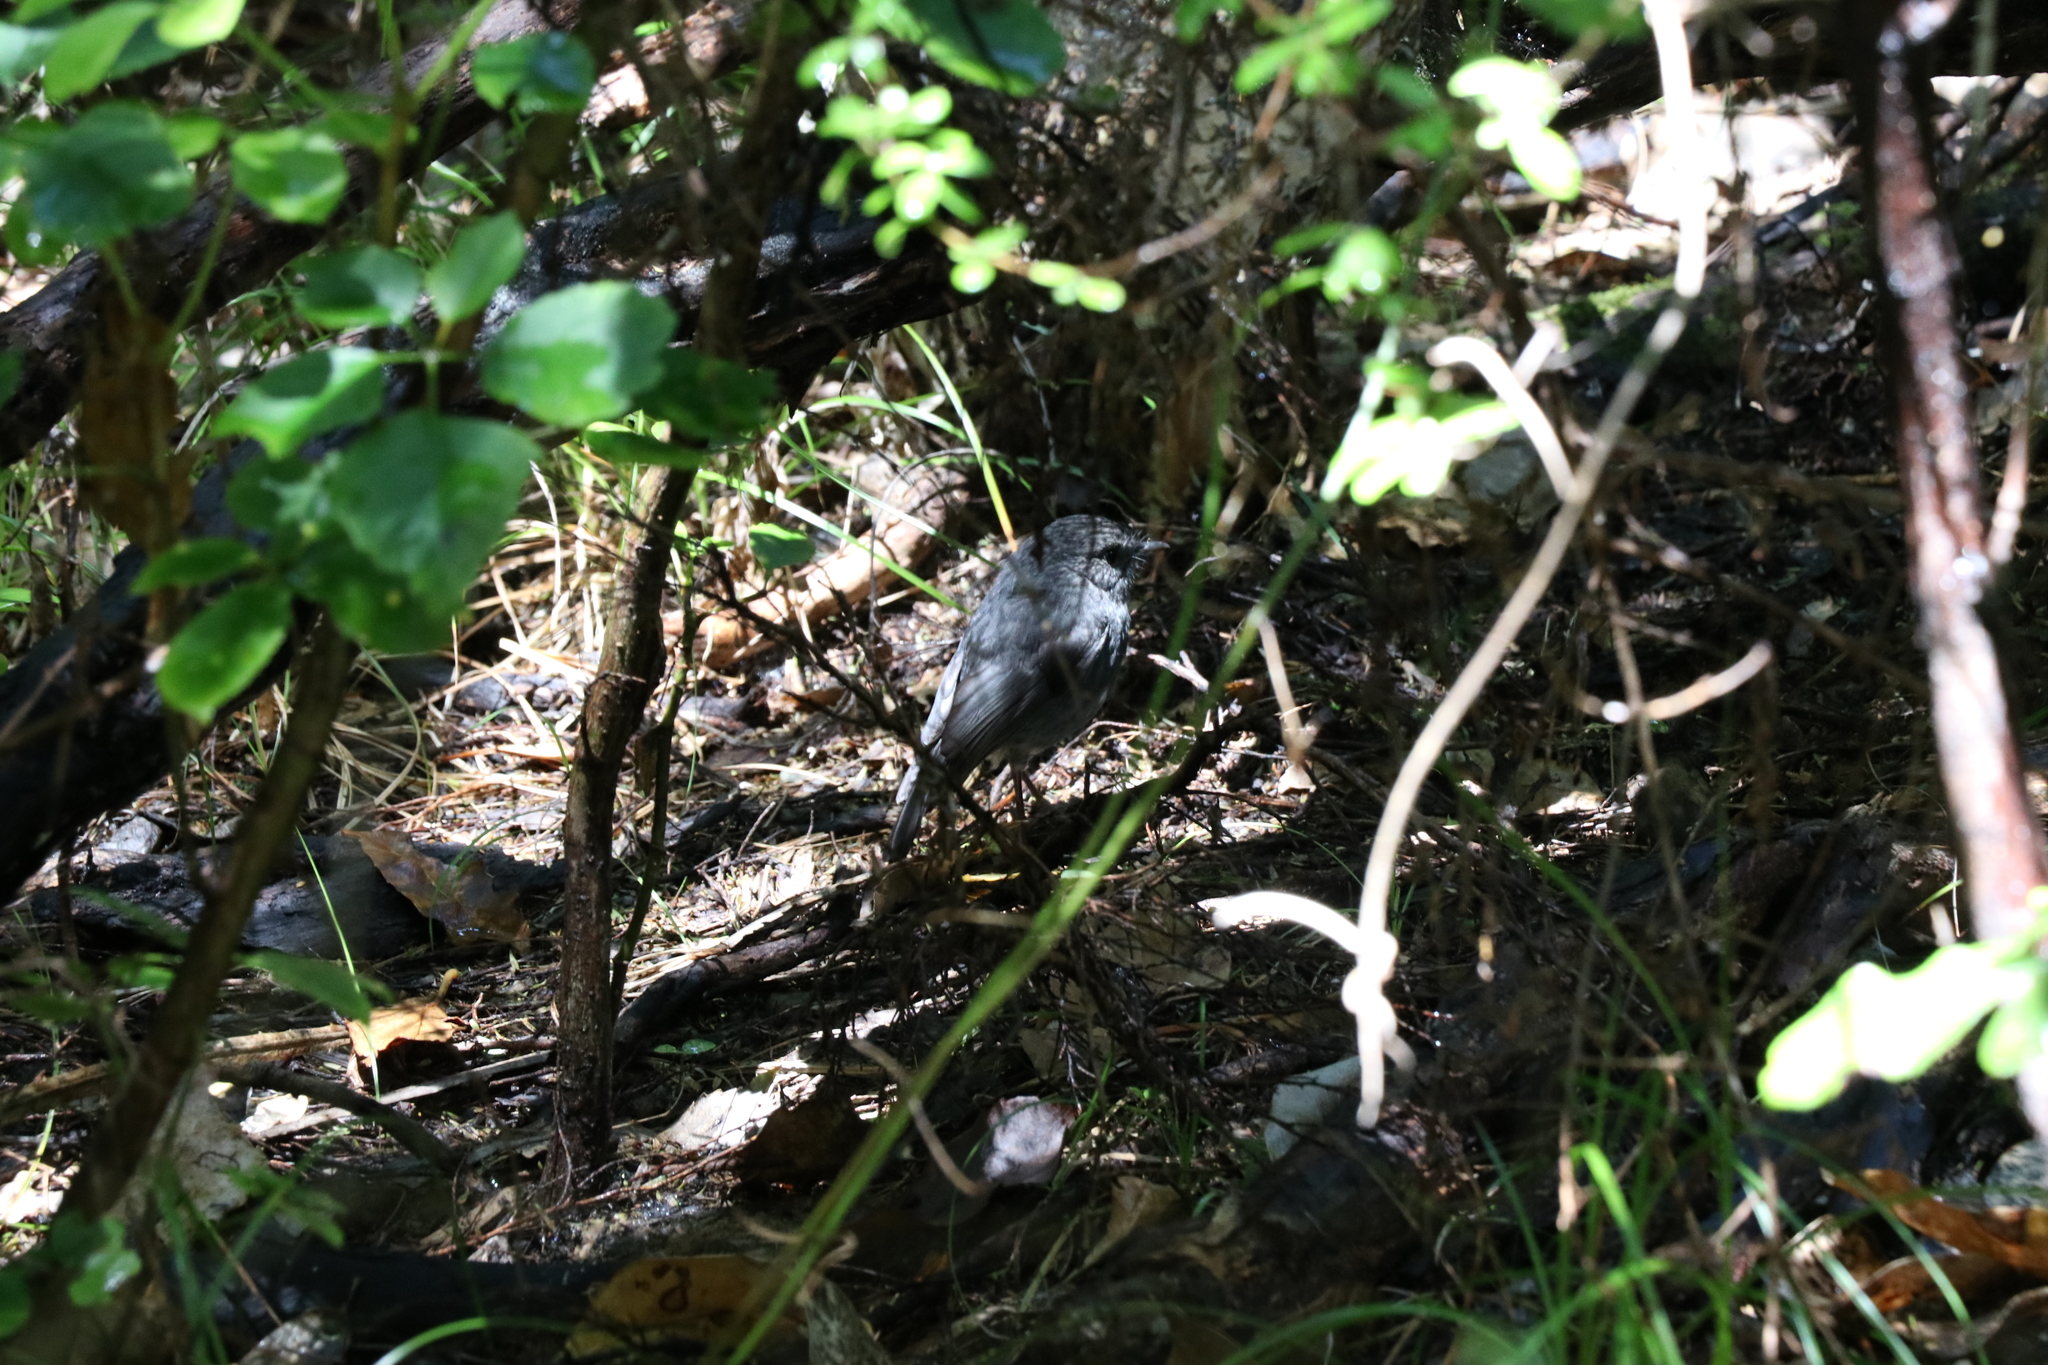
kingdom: Animalia
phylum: Chordata
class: Aves
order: Passeriformes
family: Petroicidae
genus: Petroica
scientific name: Petroica australis
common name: New zealand robin
